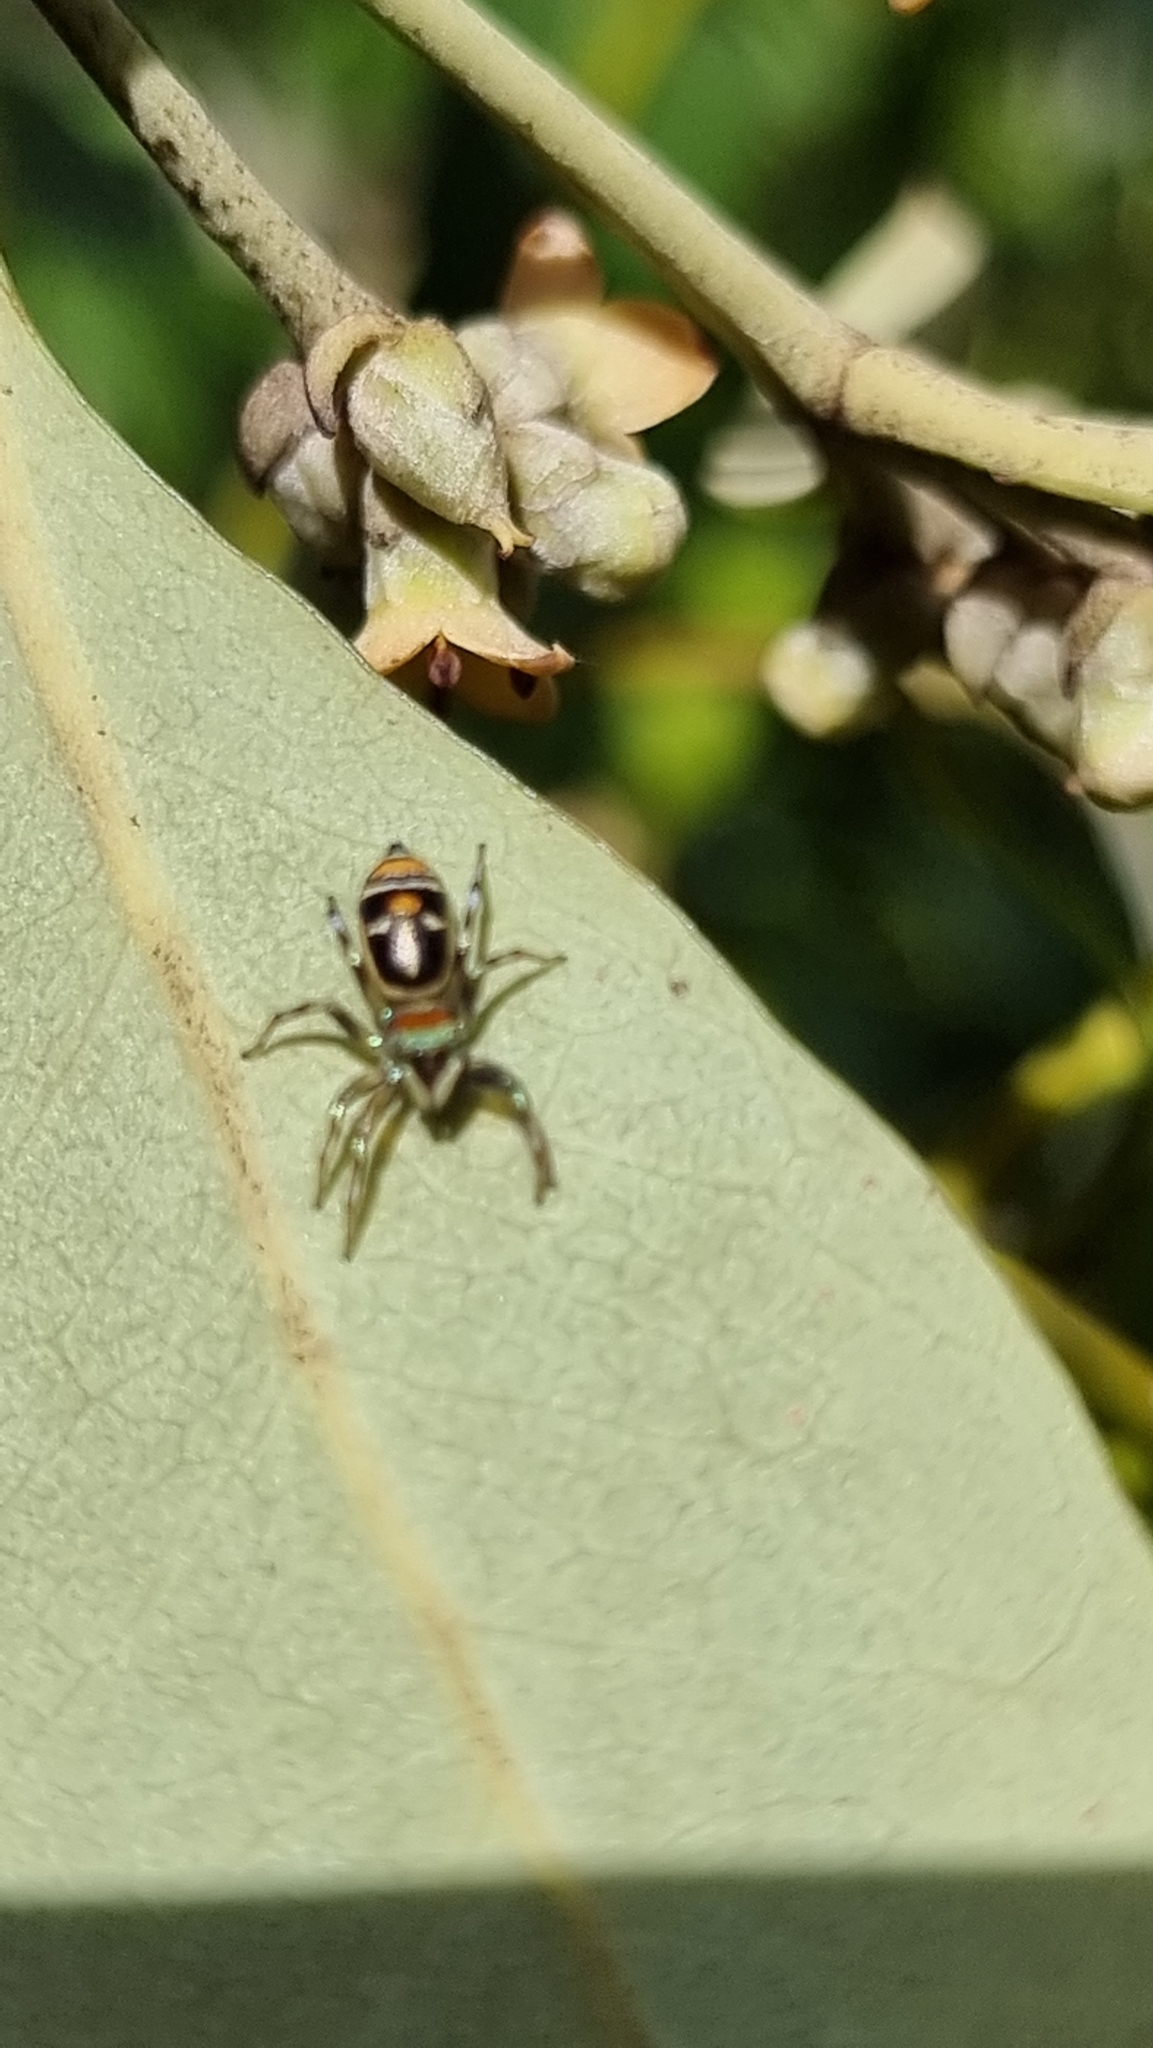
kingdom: Animalia
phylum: Arthropoda
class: Arachnida
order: Araneae
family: Salticidae
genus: Cosmophasis
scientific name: Cosmophasis micarioides
